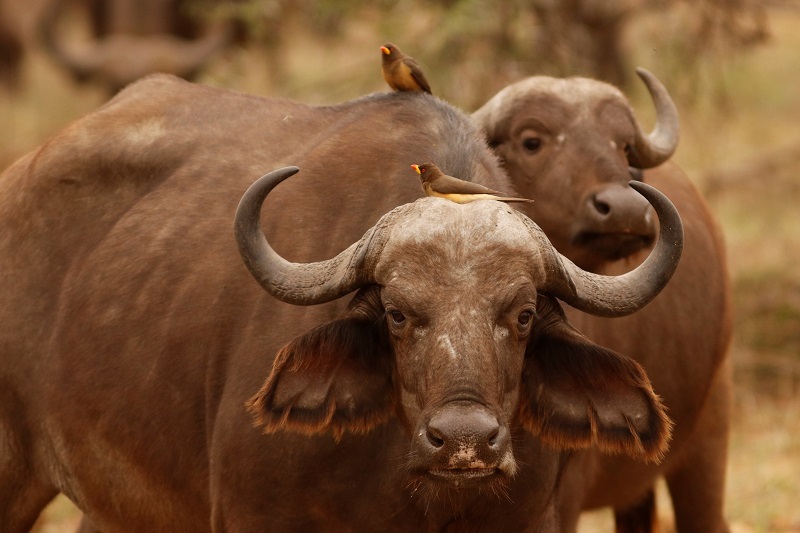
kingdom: Animalia
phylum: Chordata
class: Aves
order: Passeriformes
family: Buphagidae
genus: Buphagus
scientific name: Buphagus africanus
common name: Yellow-billed oxpecker
